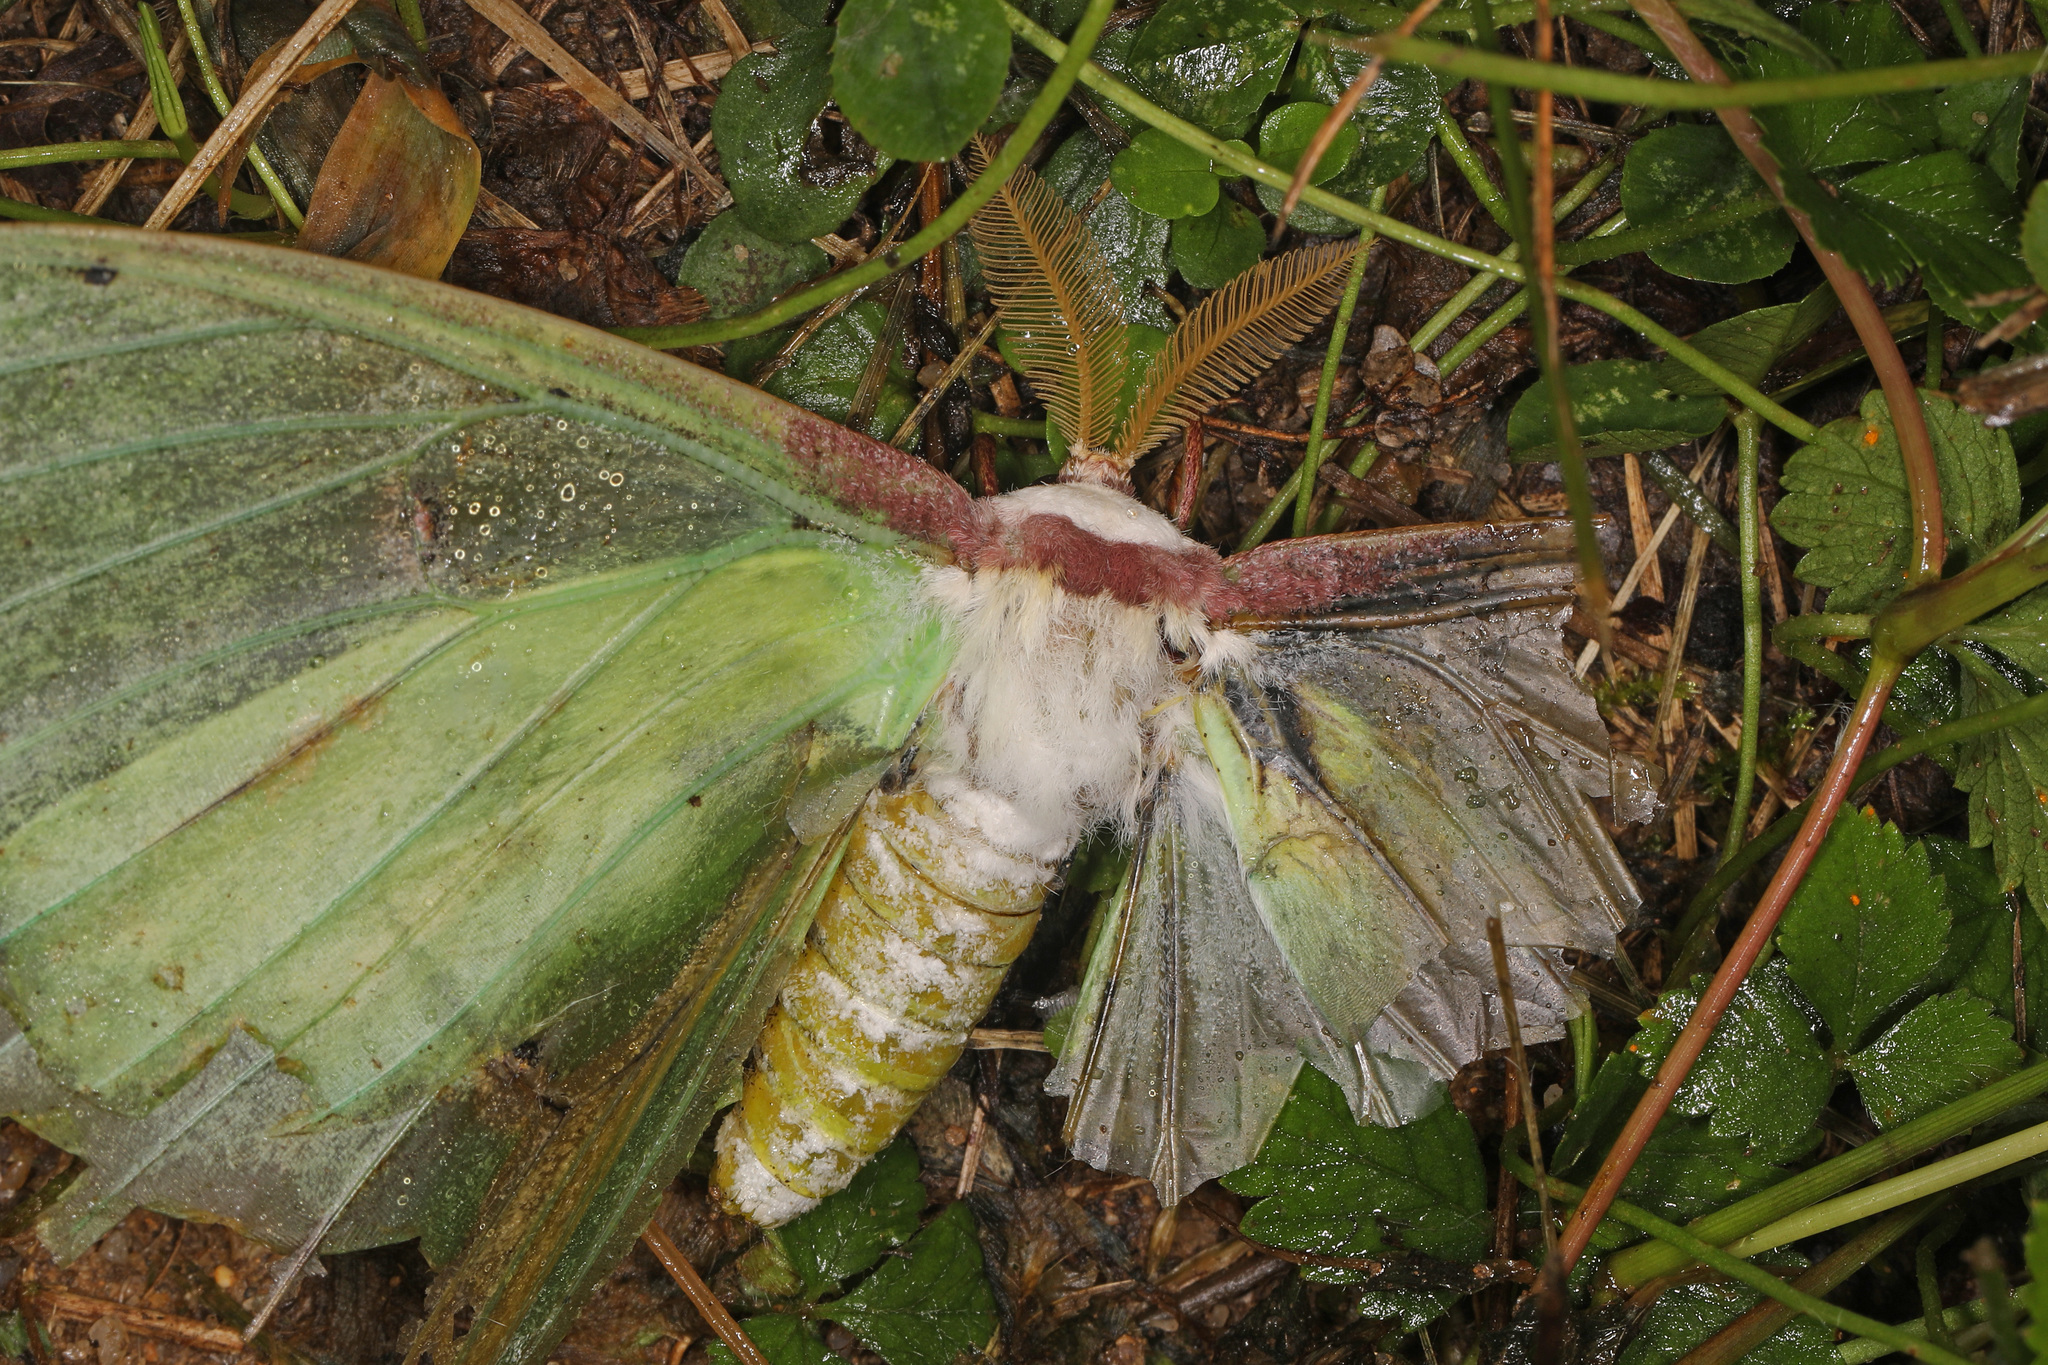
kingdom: Animalia
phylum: Arthropoda
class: Insecta
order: Lepidoptera
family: Saturniidae
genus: Actias
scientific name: Actias luna
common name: Luna moth
